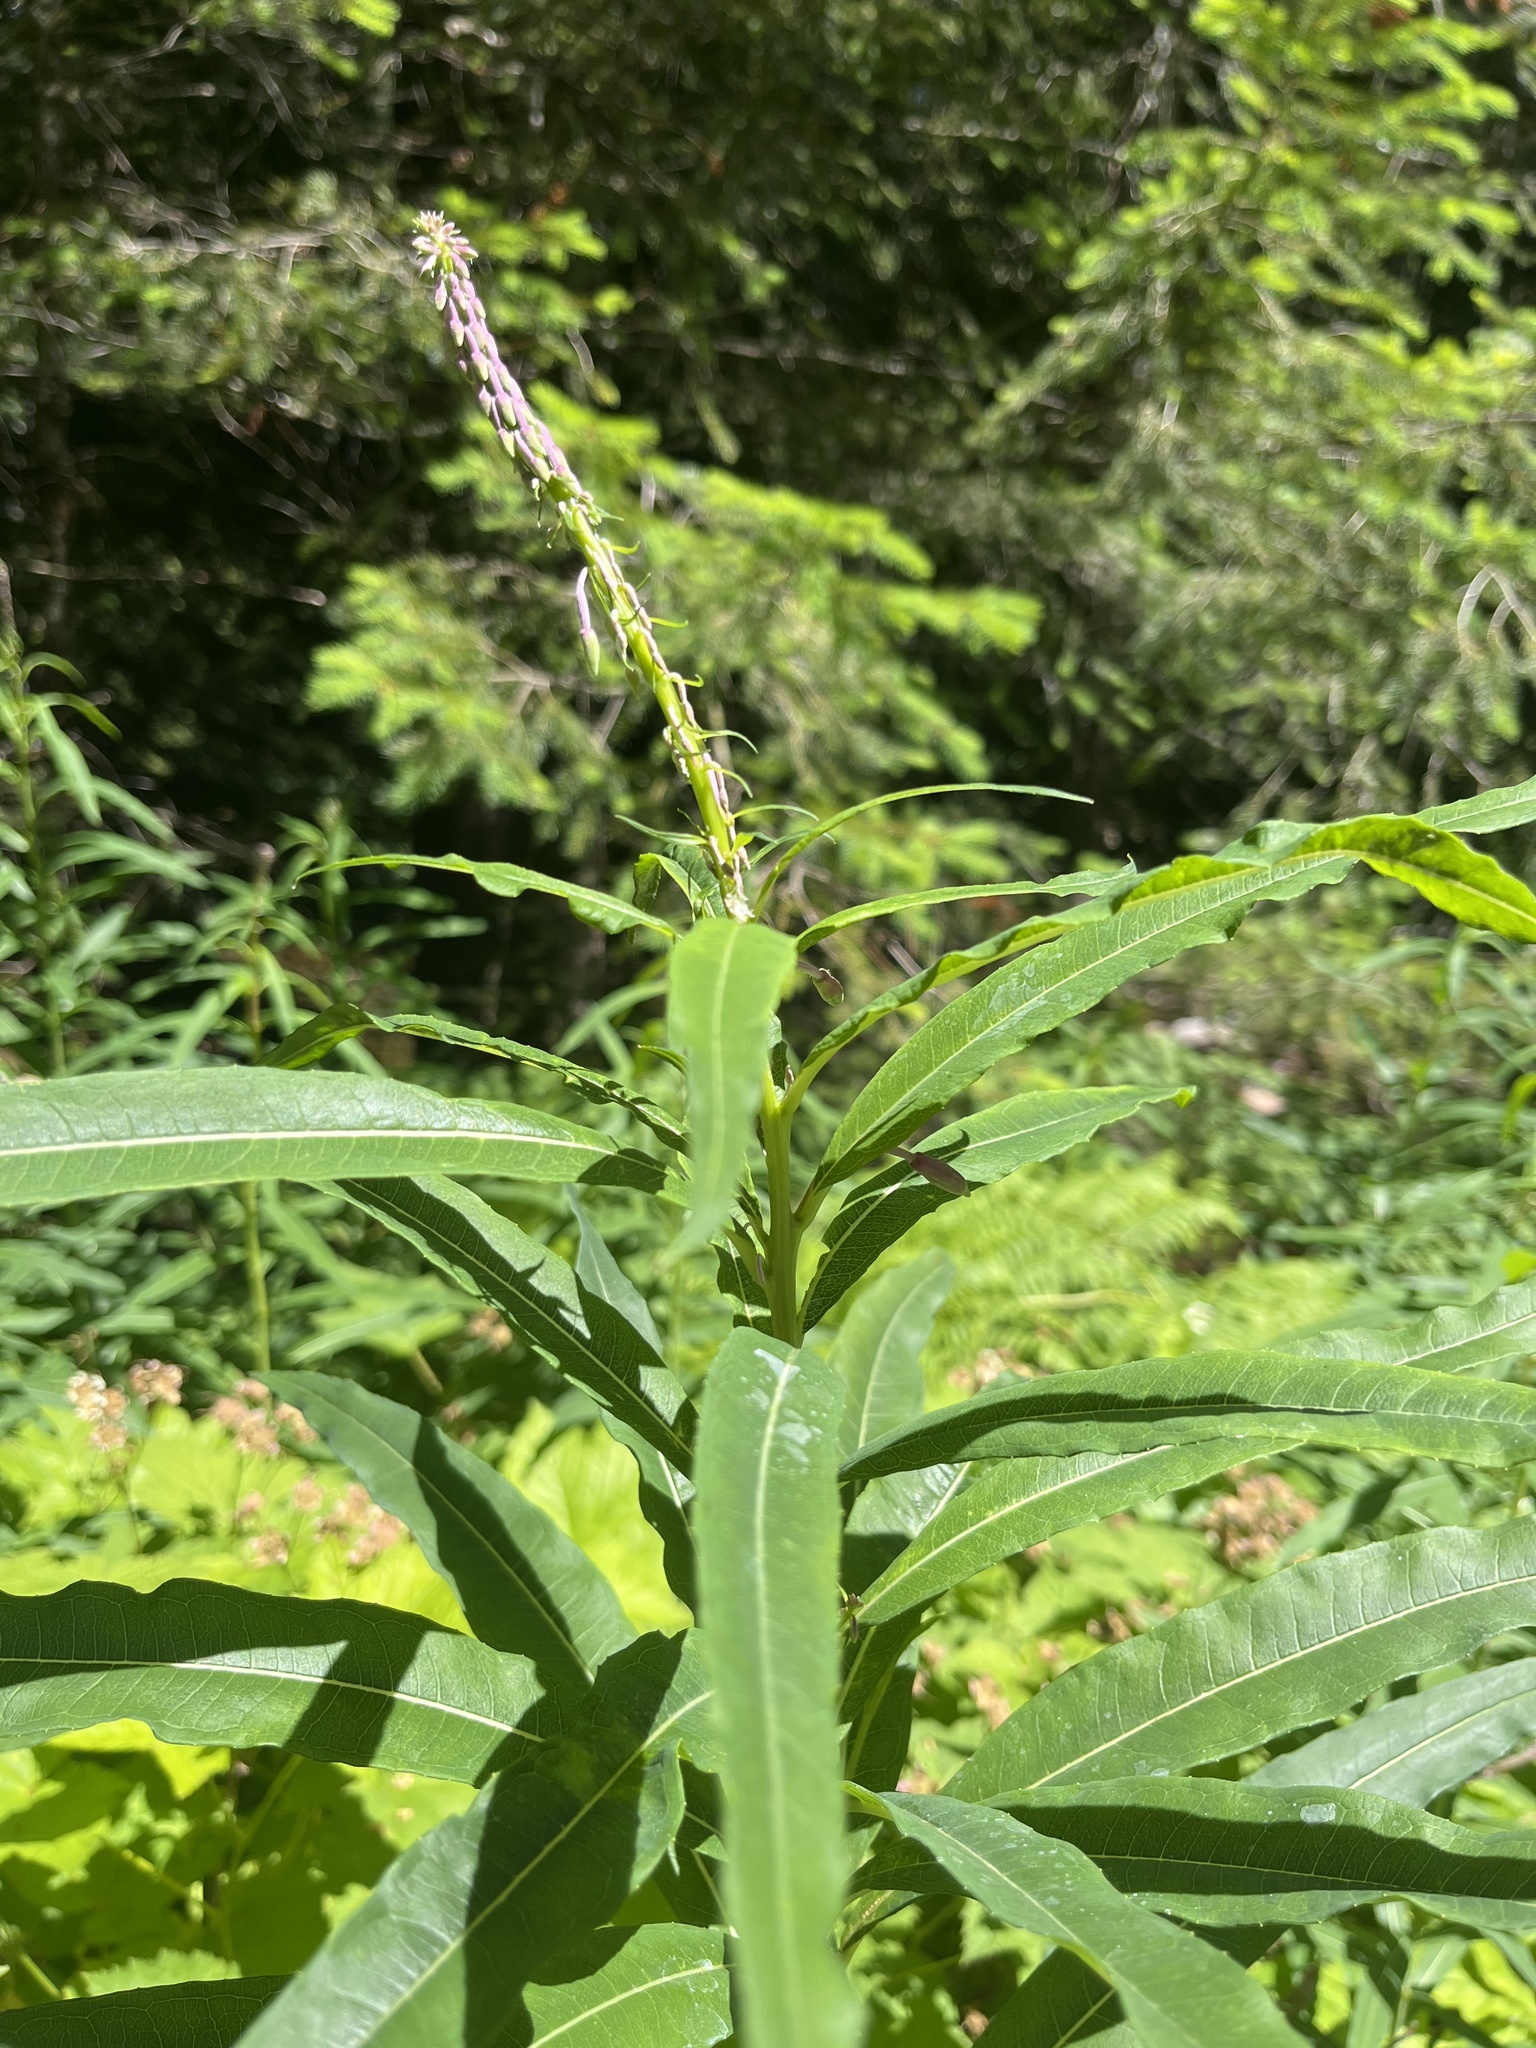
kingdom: Plantae
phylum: Tracheophyta
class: Magnoliopsida
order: Myrtales
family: Onagraceae
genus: Chamaenerion
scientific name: Chamaenerion angustifolium
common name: Fireweed
